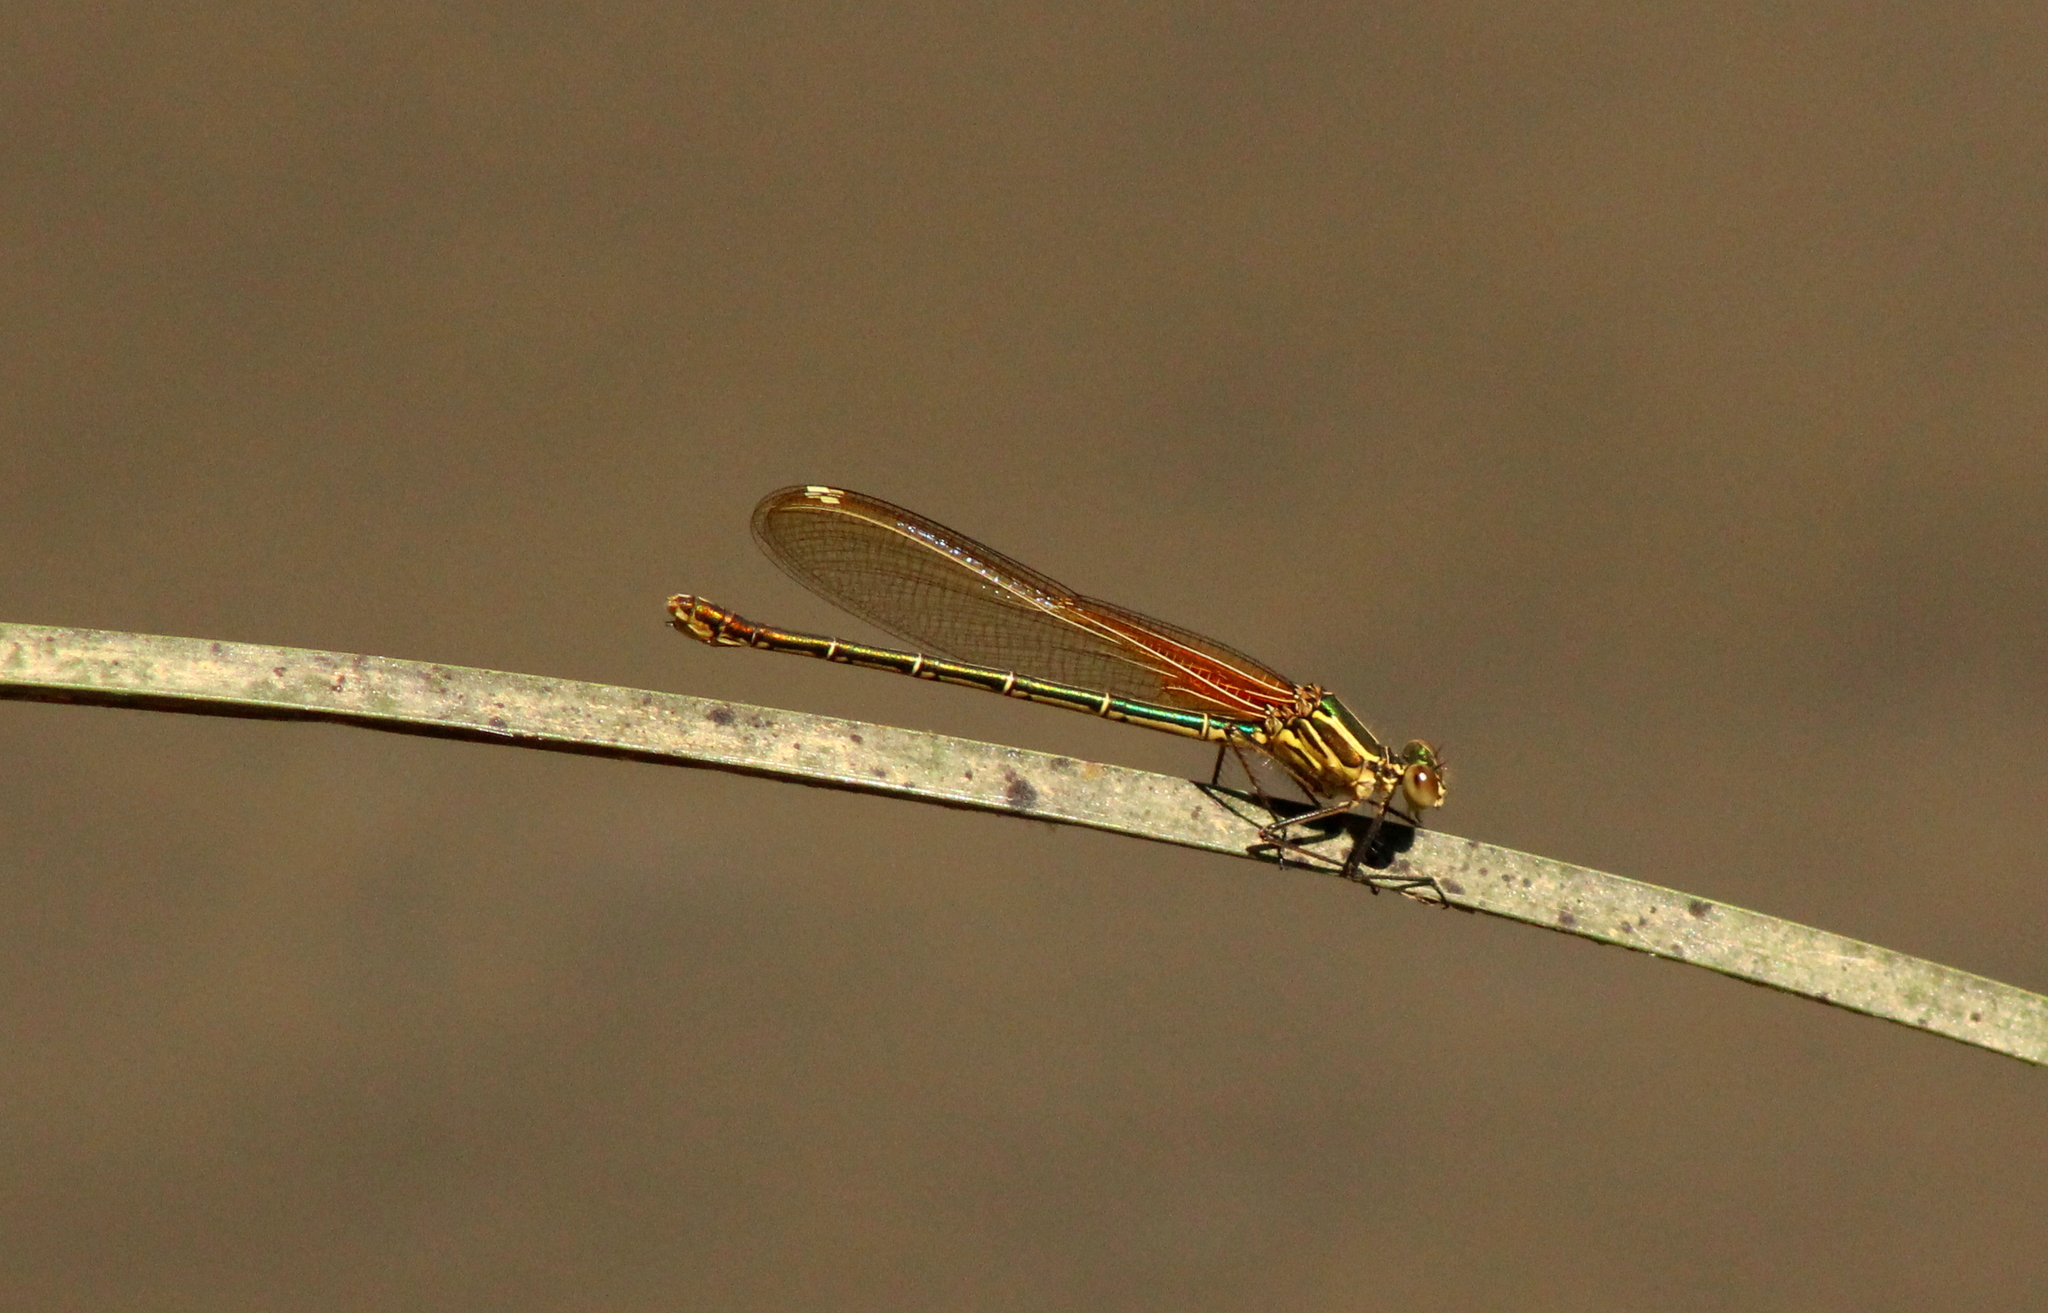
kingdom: Animalia
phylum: Arthropoda
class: Insecta
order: Odonata
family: Calopterygidae
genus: Hetaerina
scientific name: Hetaerina americana
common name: American rubyspot
